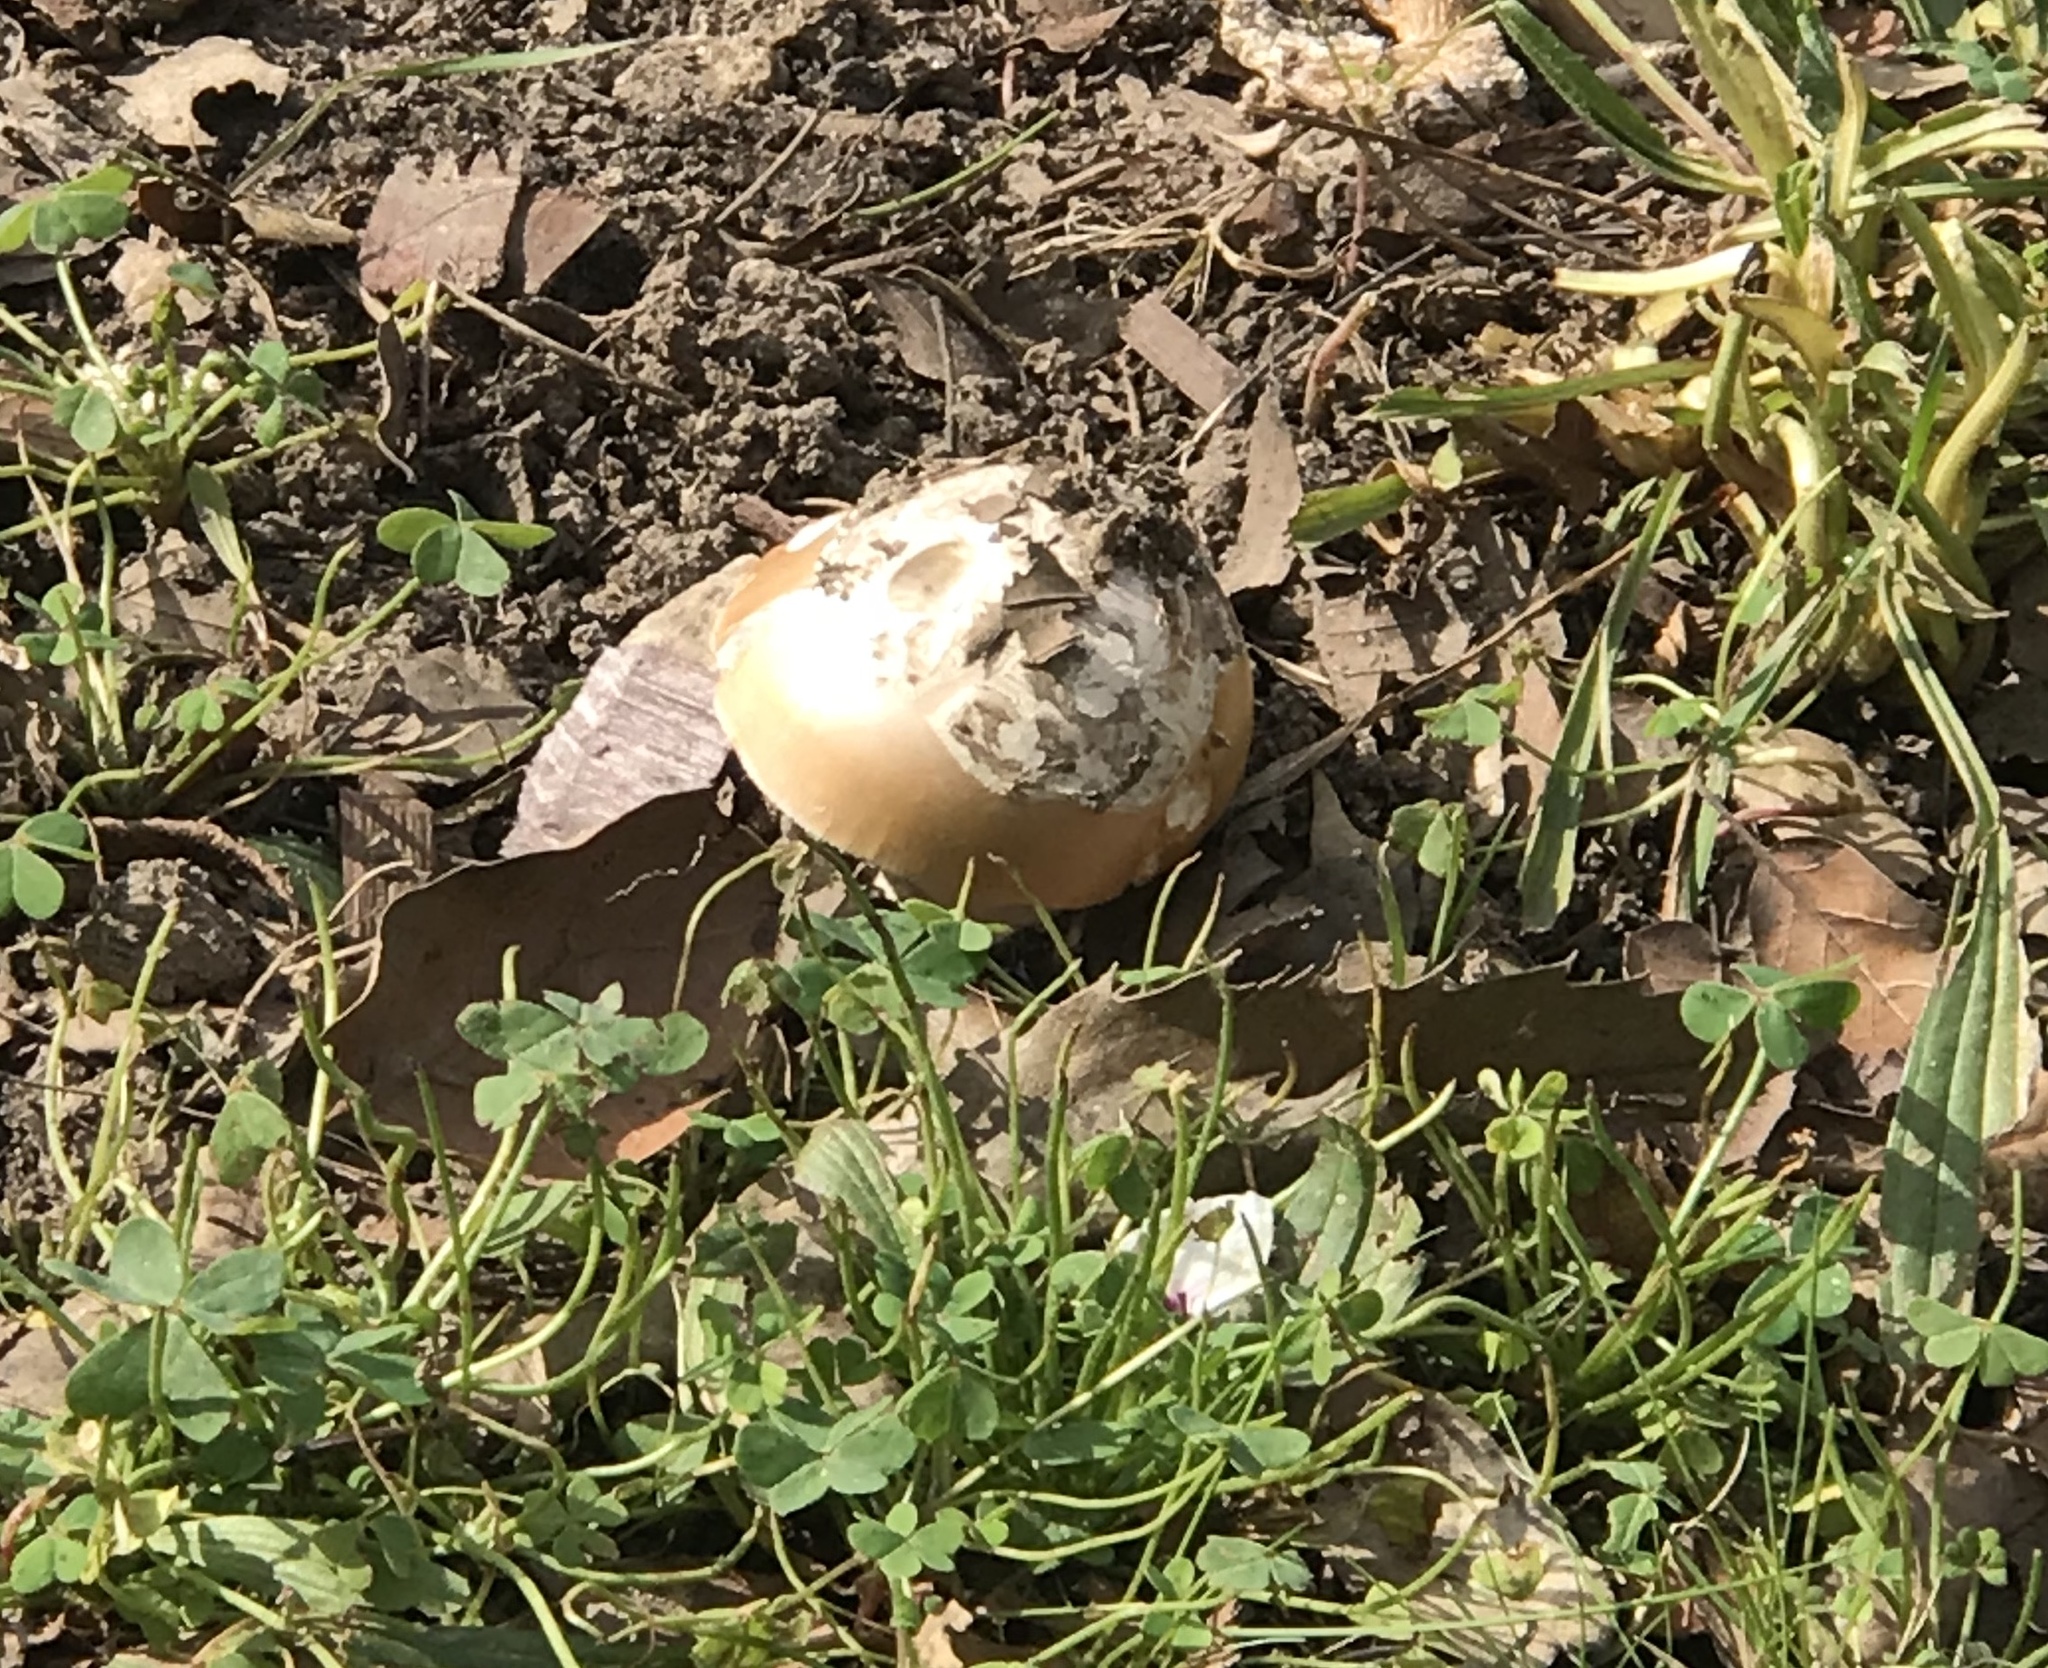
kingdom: Fungi
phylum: Basidiomycota
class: Agaricomycetes
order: Agaricales
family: Amanitaceae
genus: Amanita
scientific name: Amanita velosa
